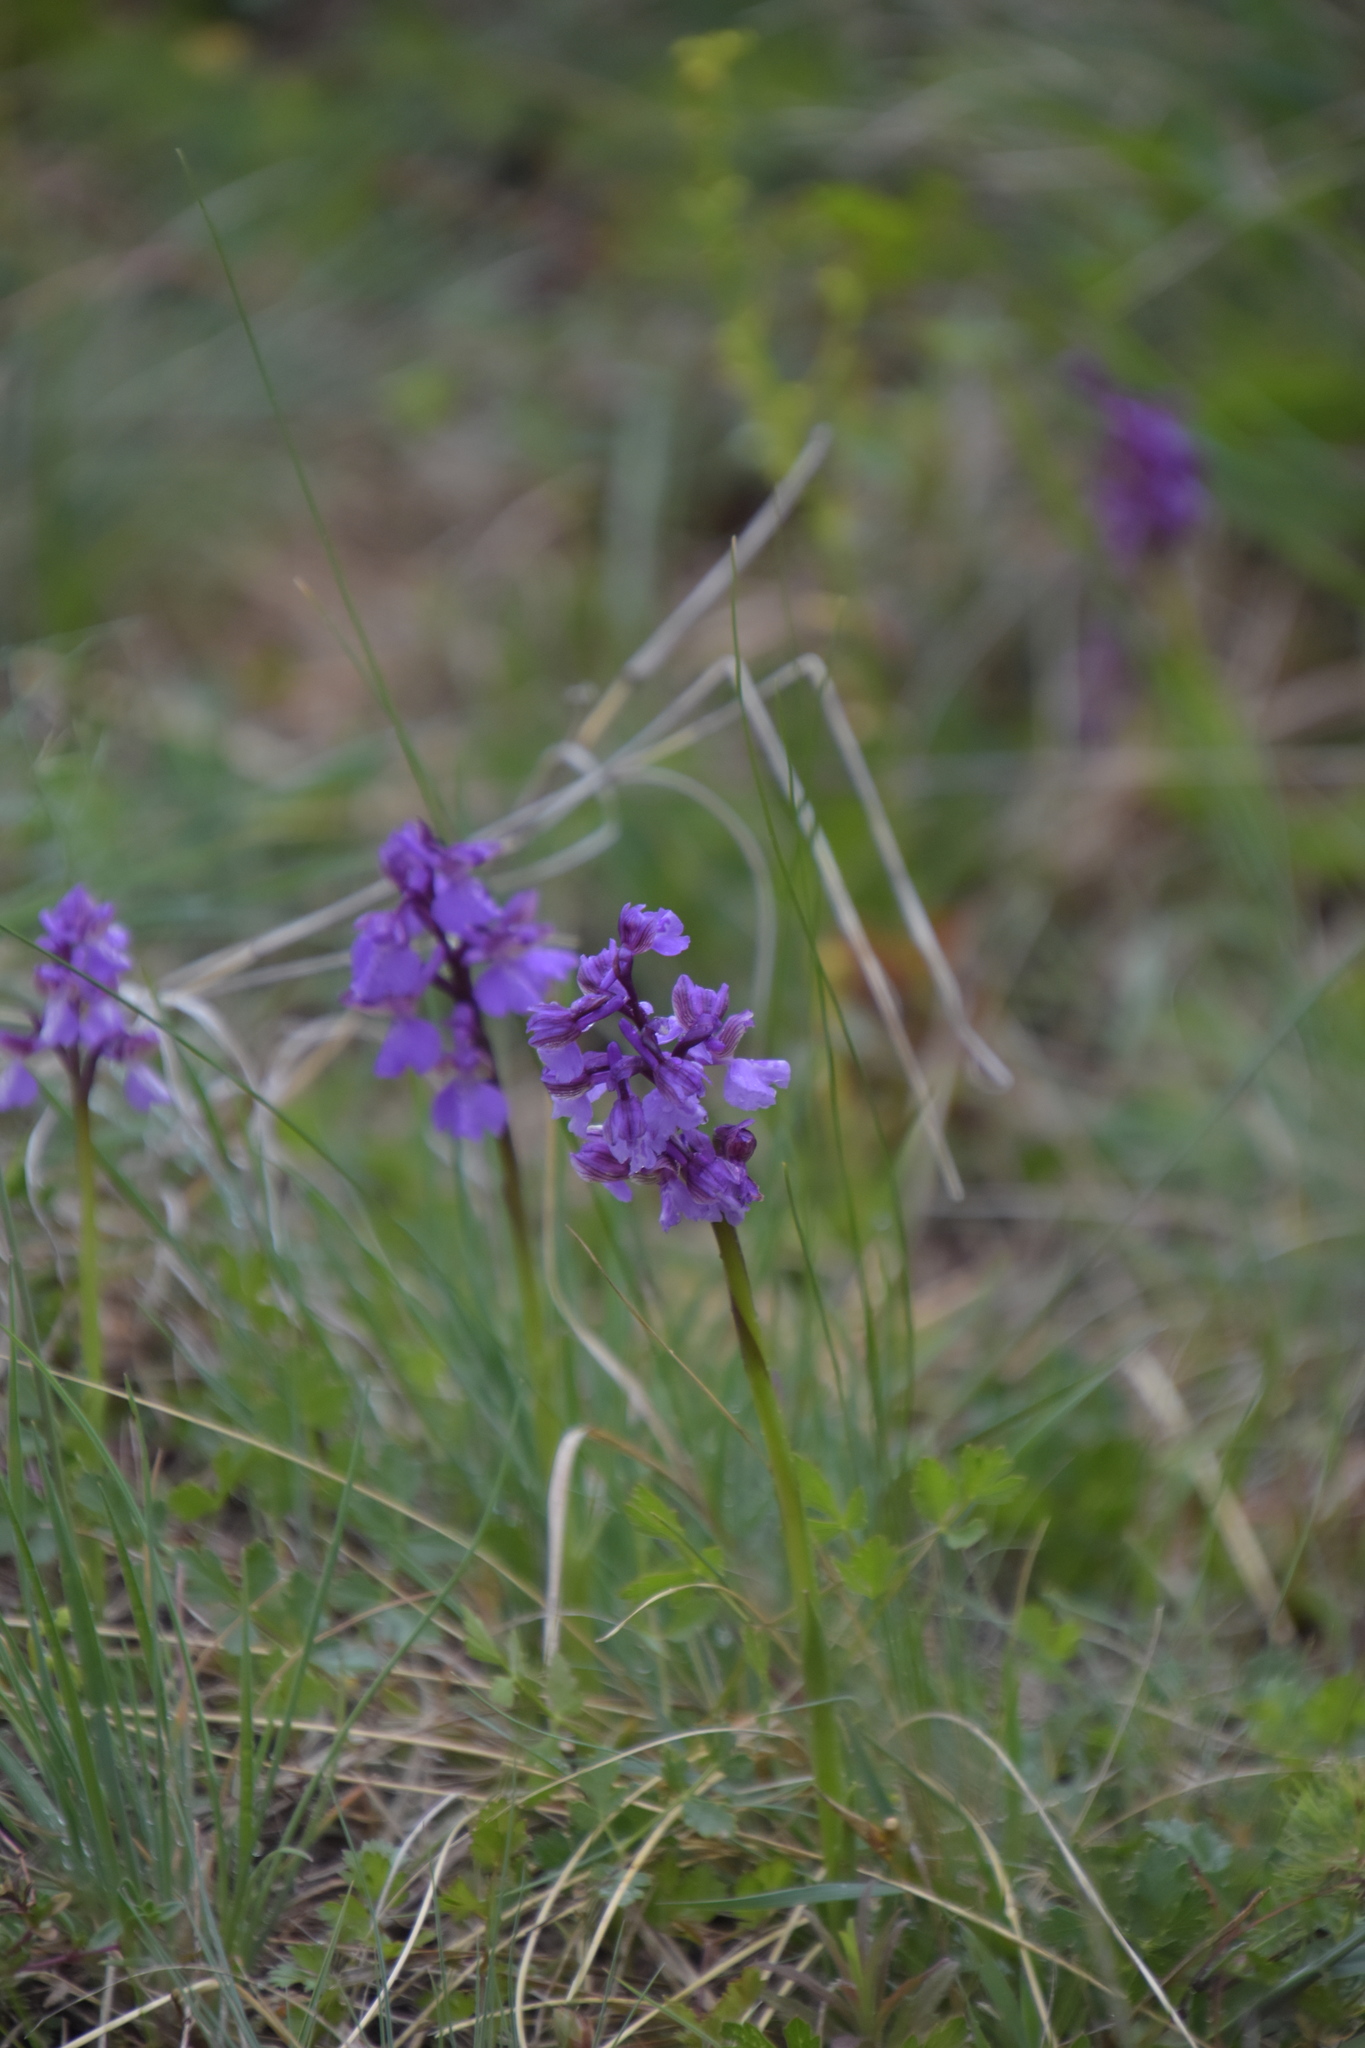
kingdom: Plantae
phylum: Tracheophyta
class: Liliopsida
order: Asparagales
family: Orchidaceae
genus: Anacamptis
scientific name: Anacamptis morio
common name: Green-winged orchid
